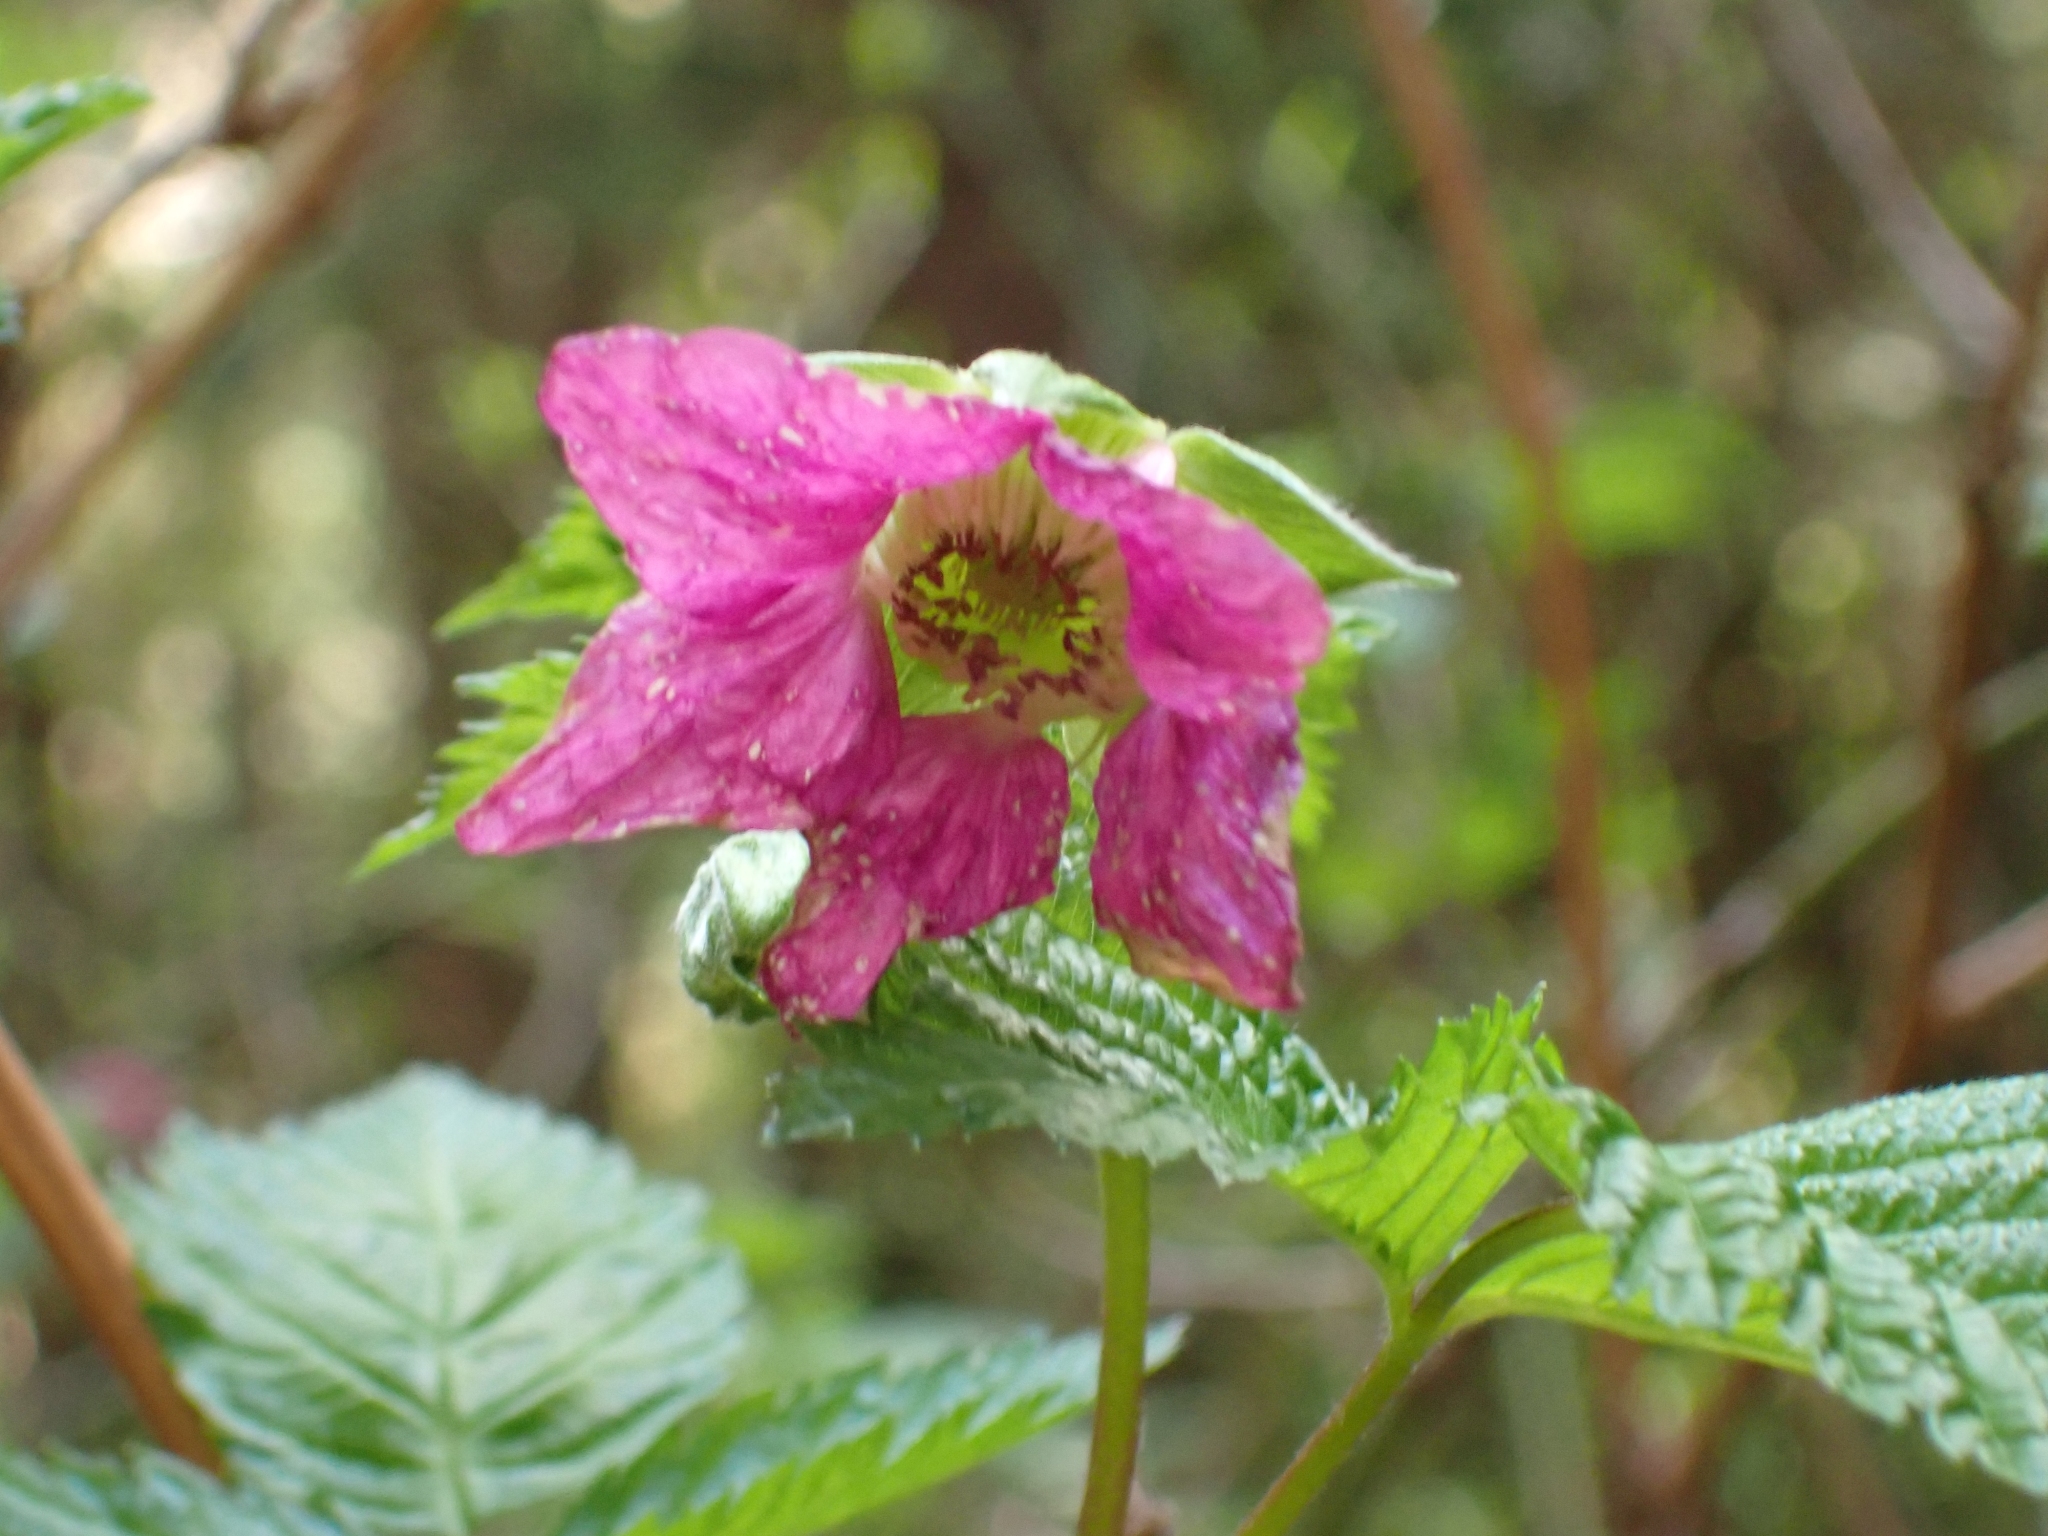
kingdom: Plantae
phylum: Tracheophyta
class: Magnoliopsida
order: Rosales
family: Rosaceae
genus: Rubus
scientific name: Rubus spectabilis
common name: Salmonberry
